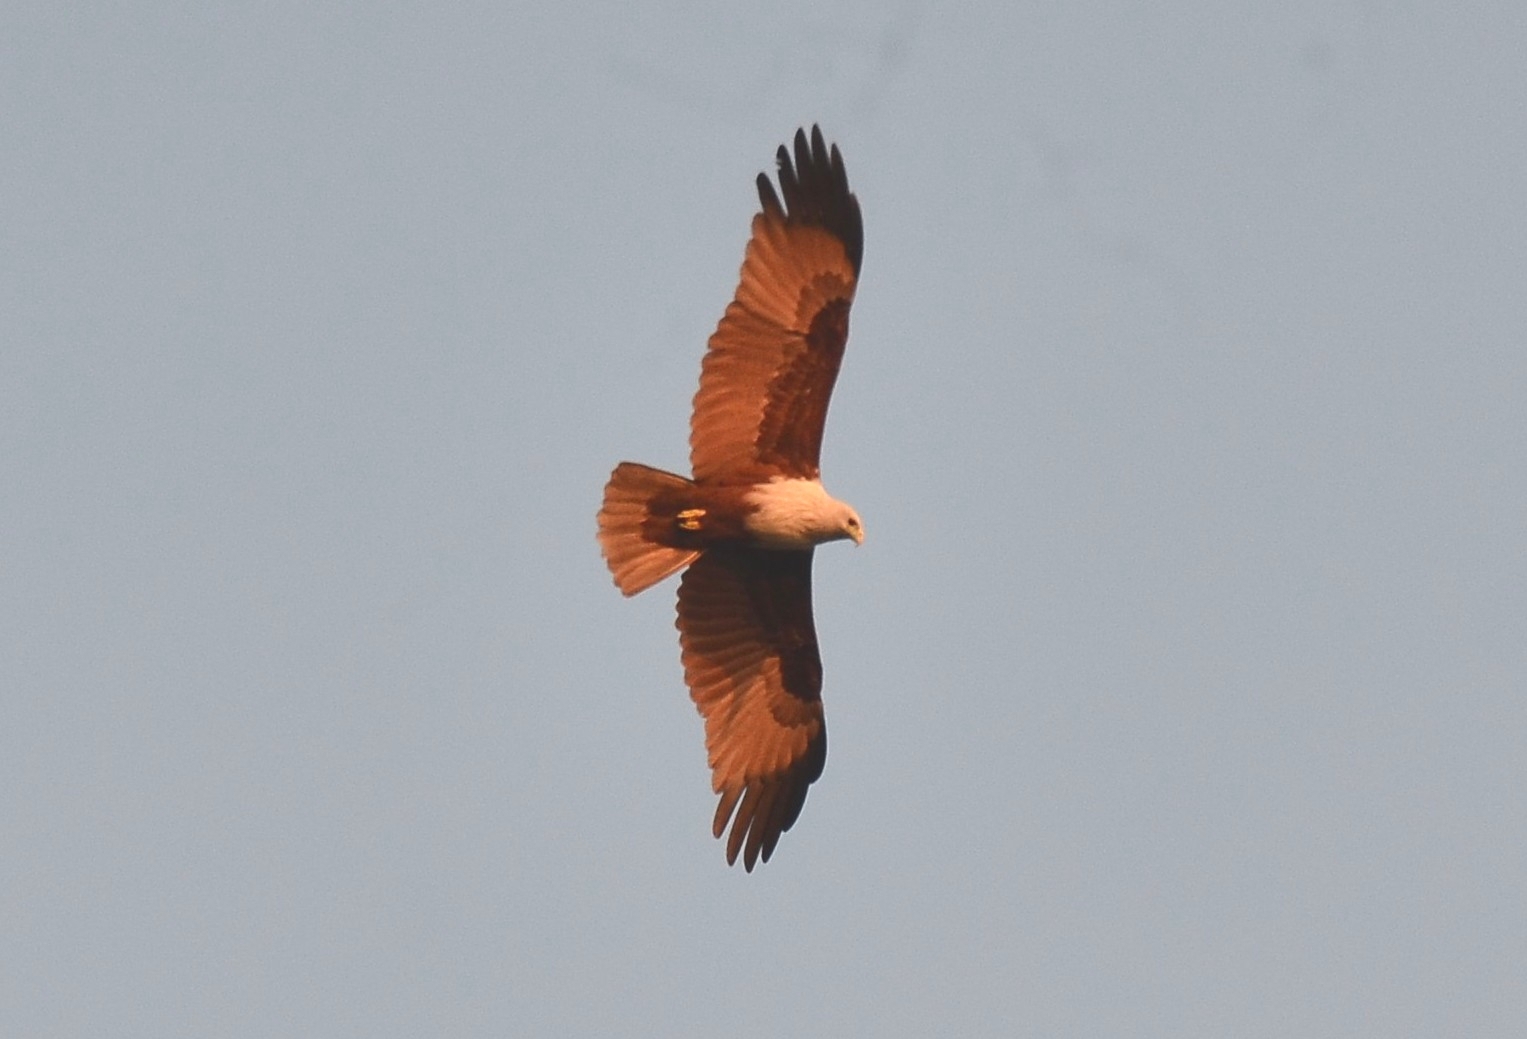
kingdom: Animalia
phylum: Chordata
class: Aves
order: Accipitriformes
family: Accipitridae
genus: Haliastur
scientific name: Haliastur indus
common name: Brahminy kite
